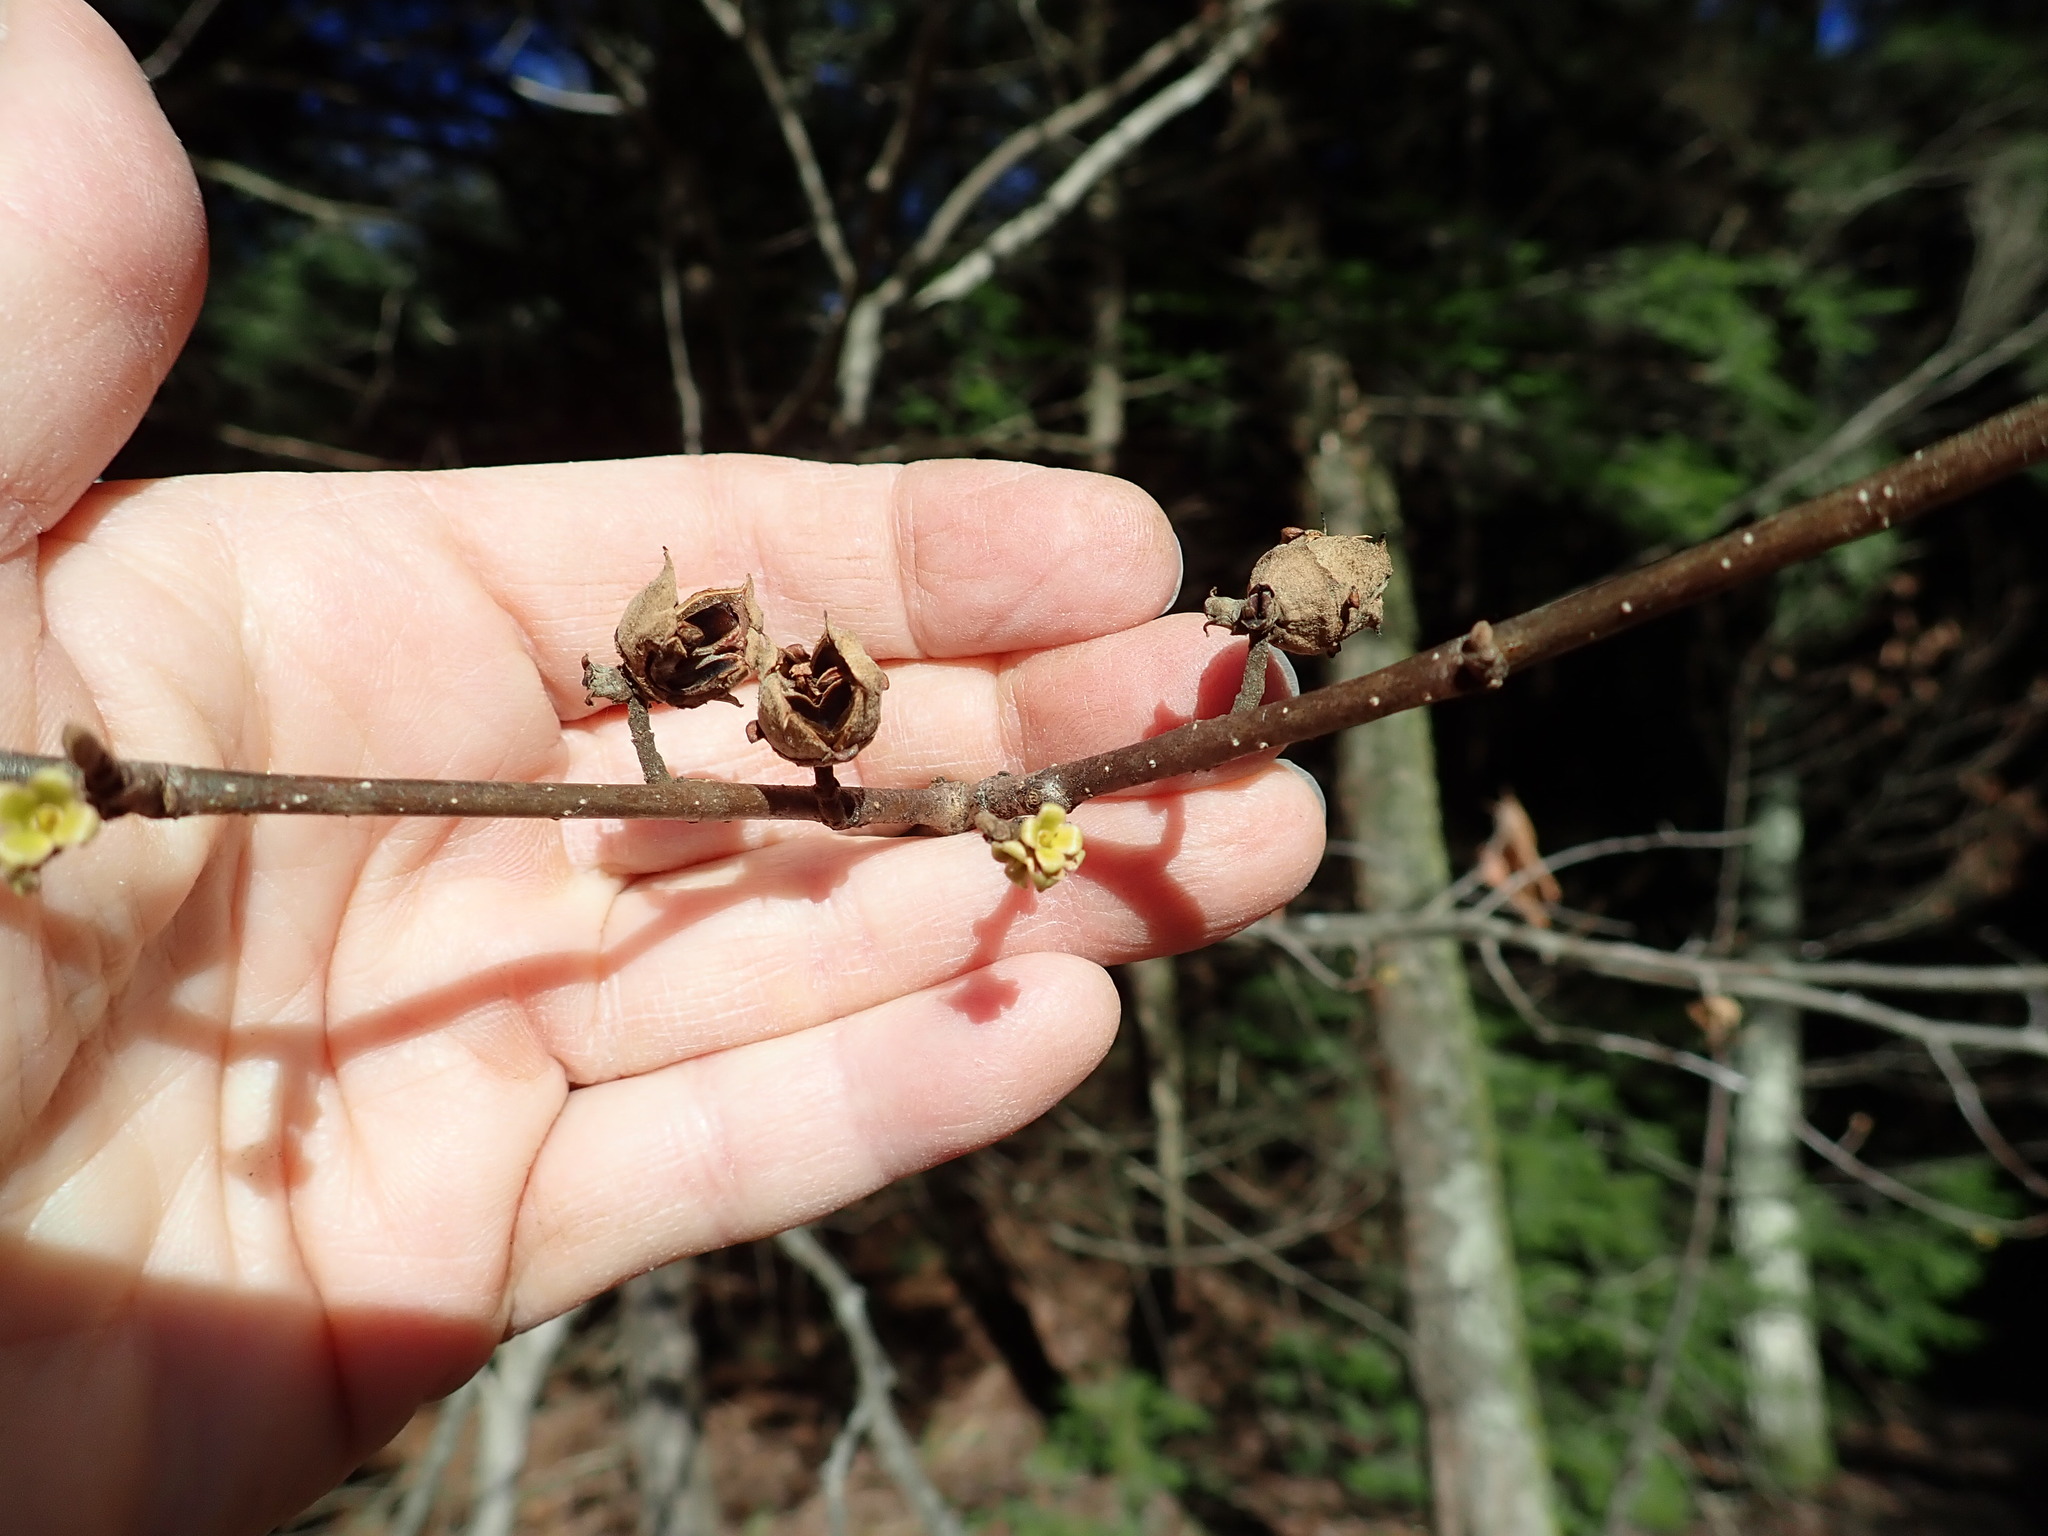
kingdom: Plantae
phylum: Tracheophyta
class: Magnoliopsida
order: Saxifragales
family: Hamamelidaceae
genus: Hamamelis
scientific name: Hamamelis virginiana
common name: Witch-hazel
